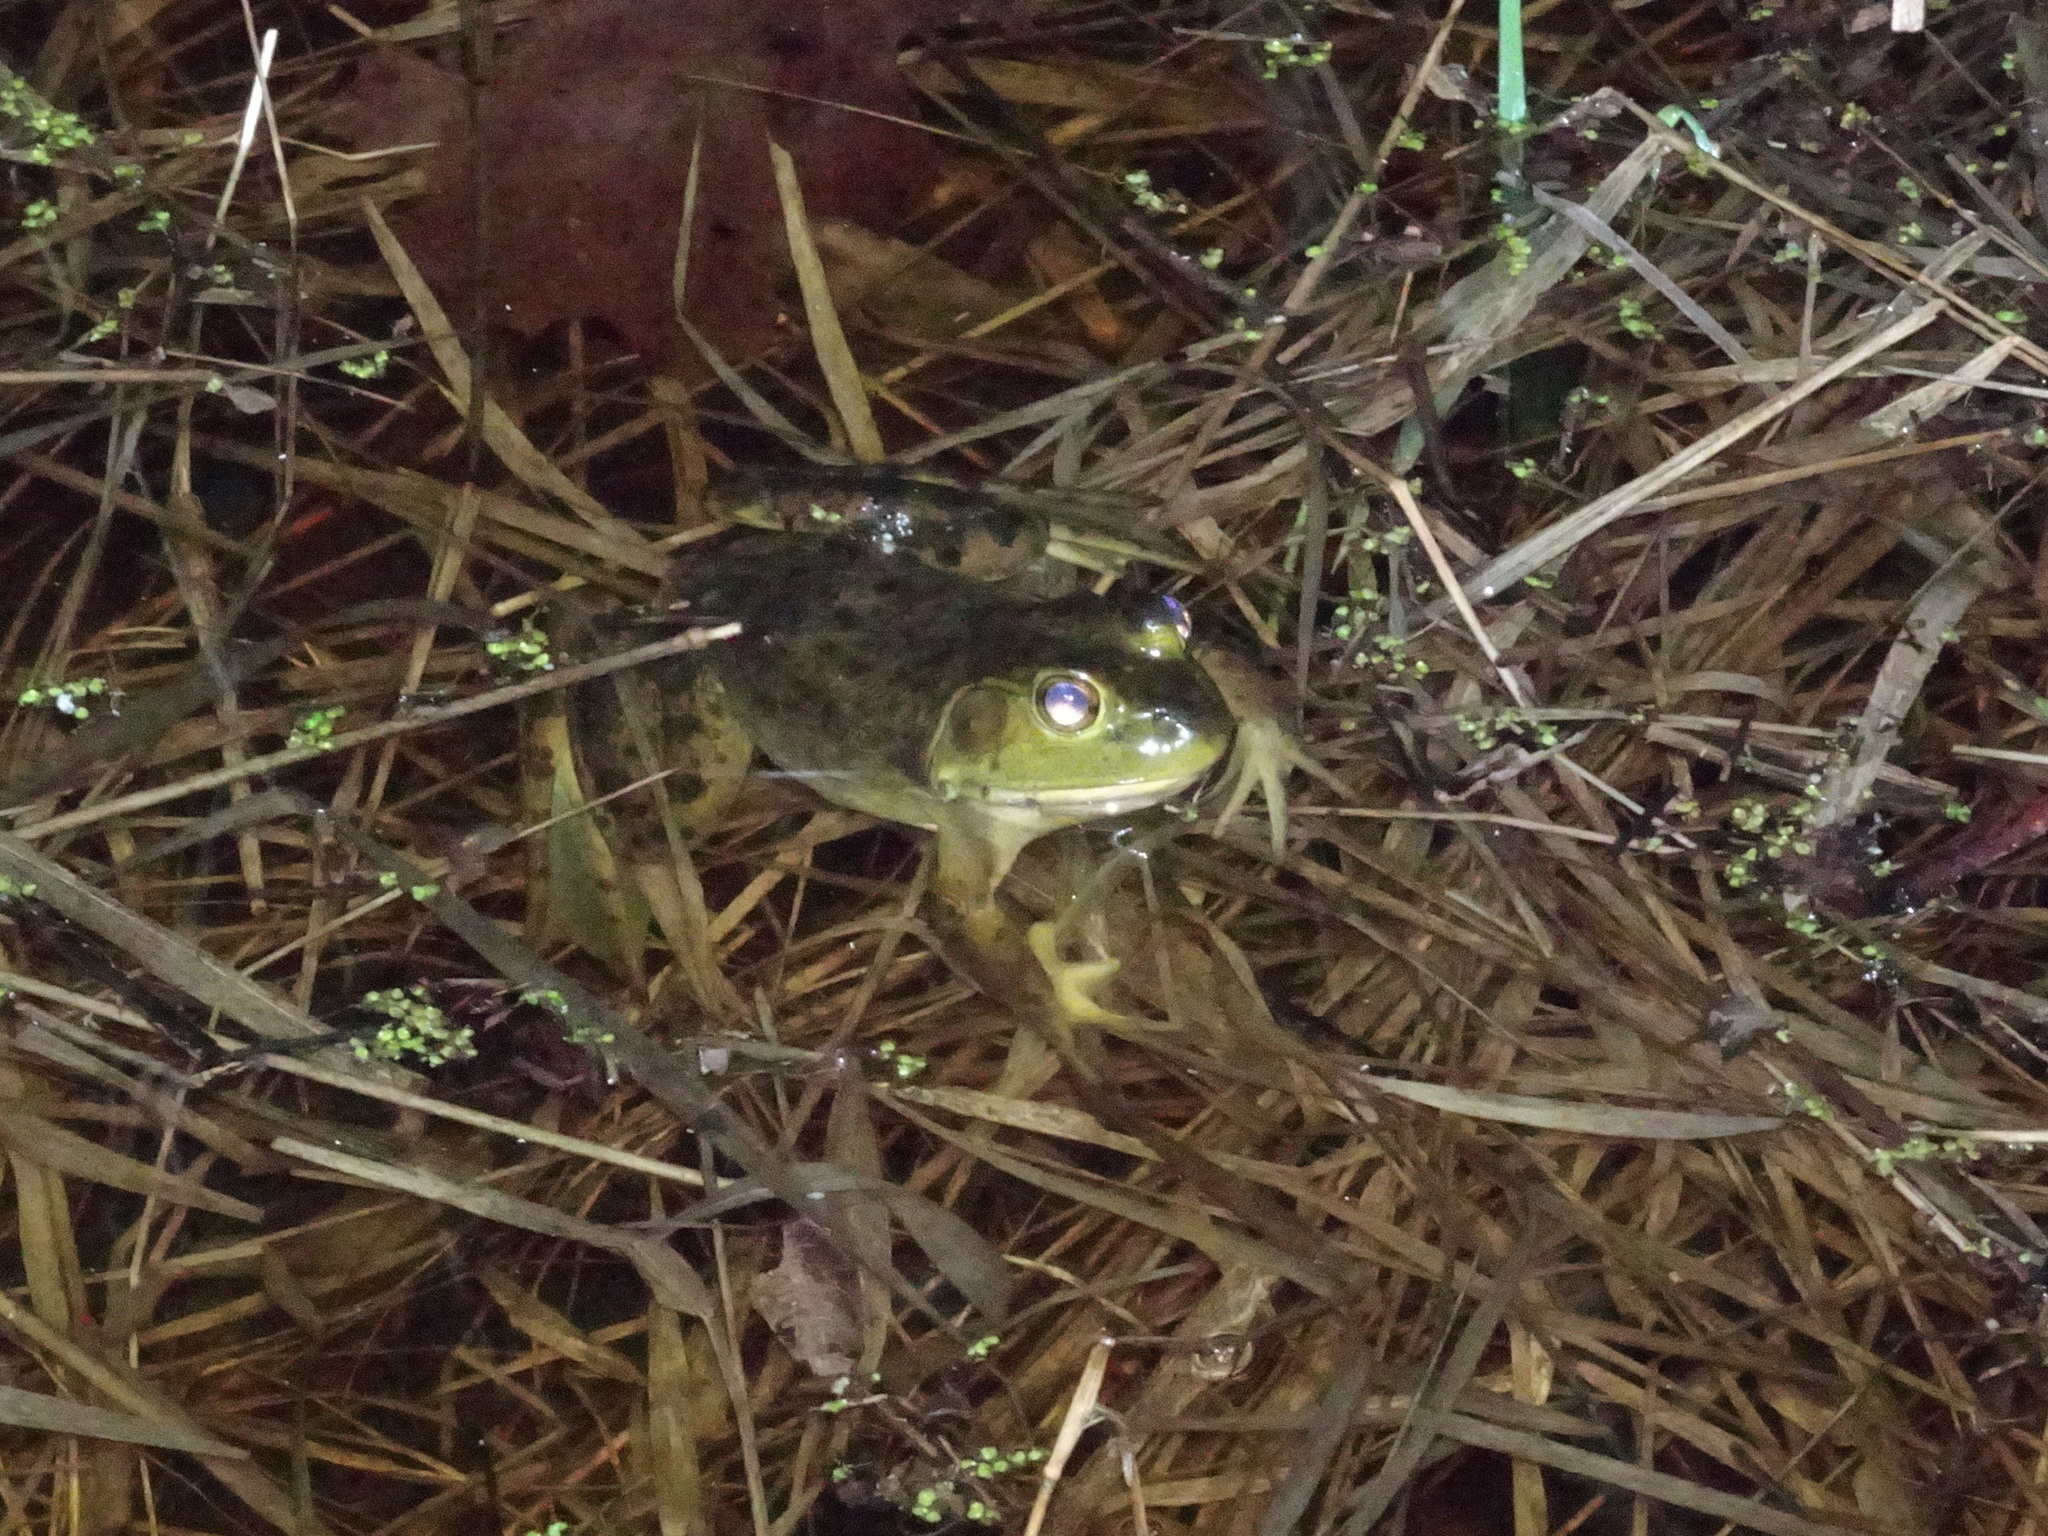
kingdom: Animalia
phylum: Chordata
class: Amphibia
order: Anura
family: Ranidae
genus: Lithobates
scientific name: Lithobates catesbeianus
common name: American bullfrog
